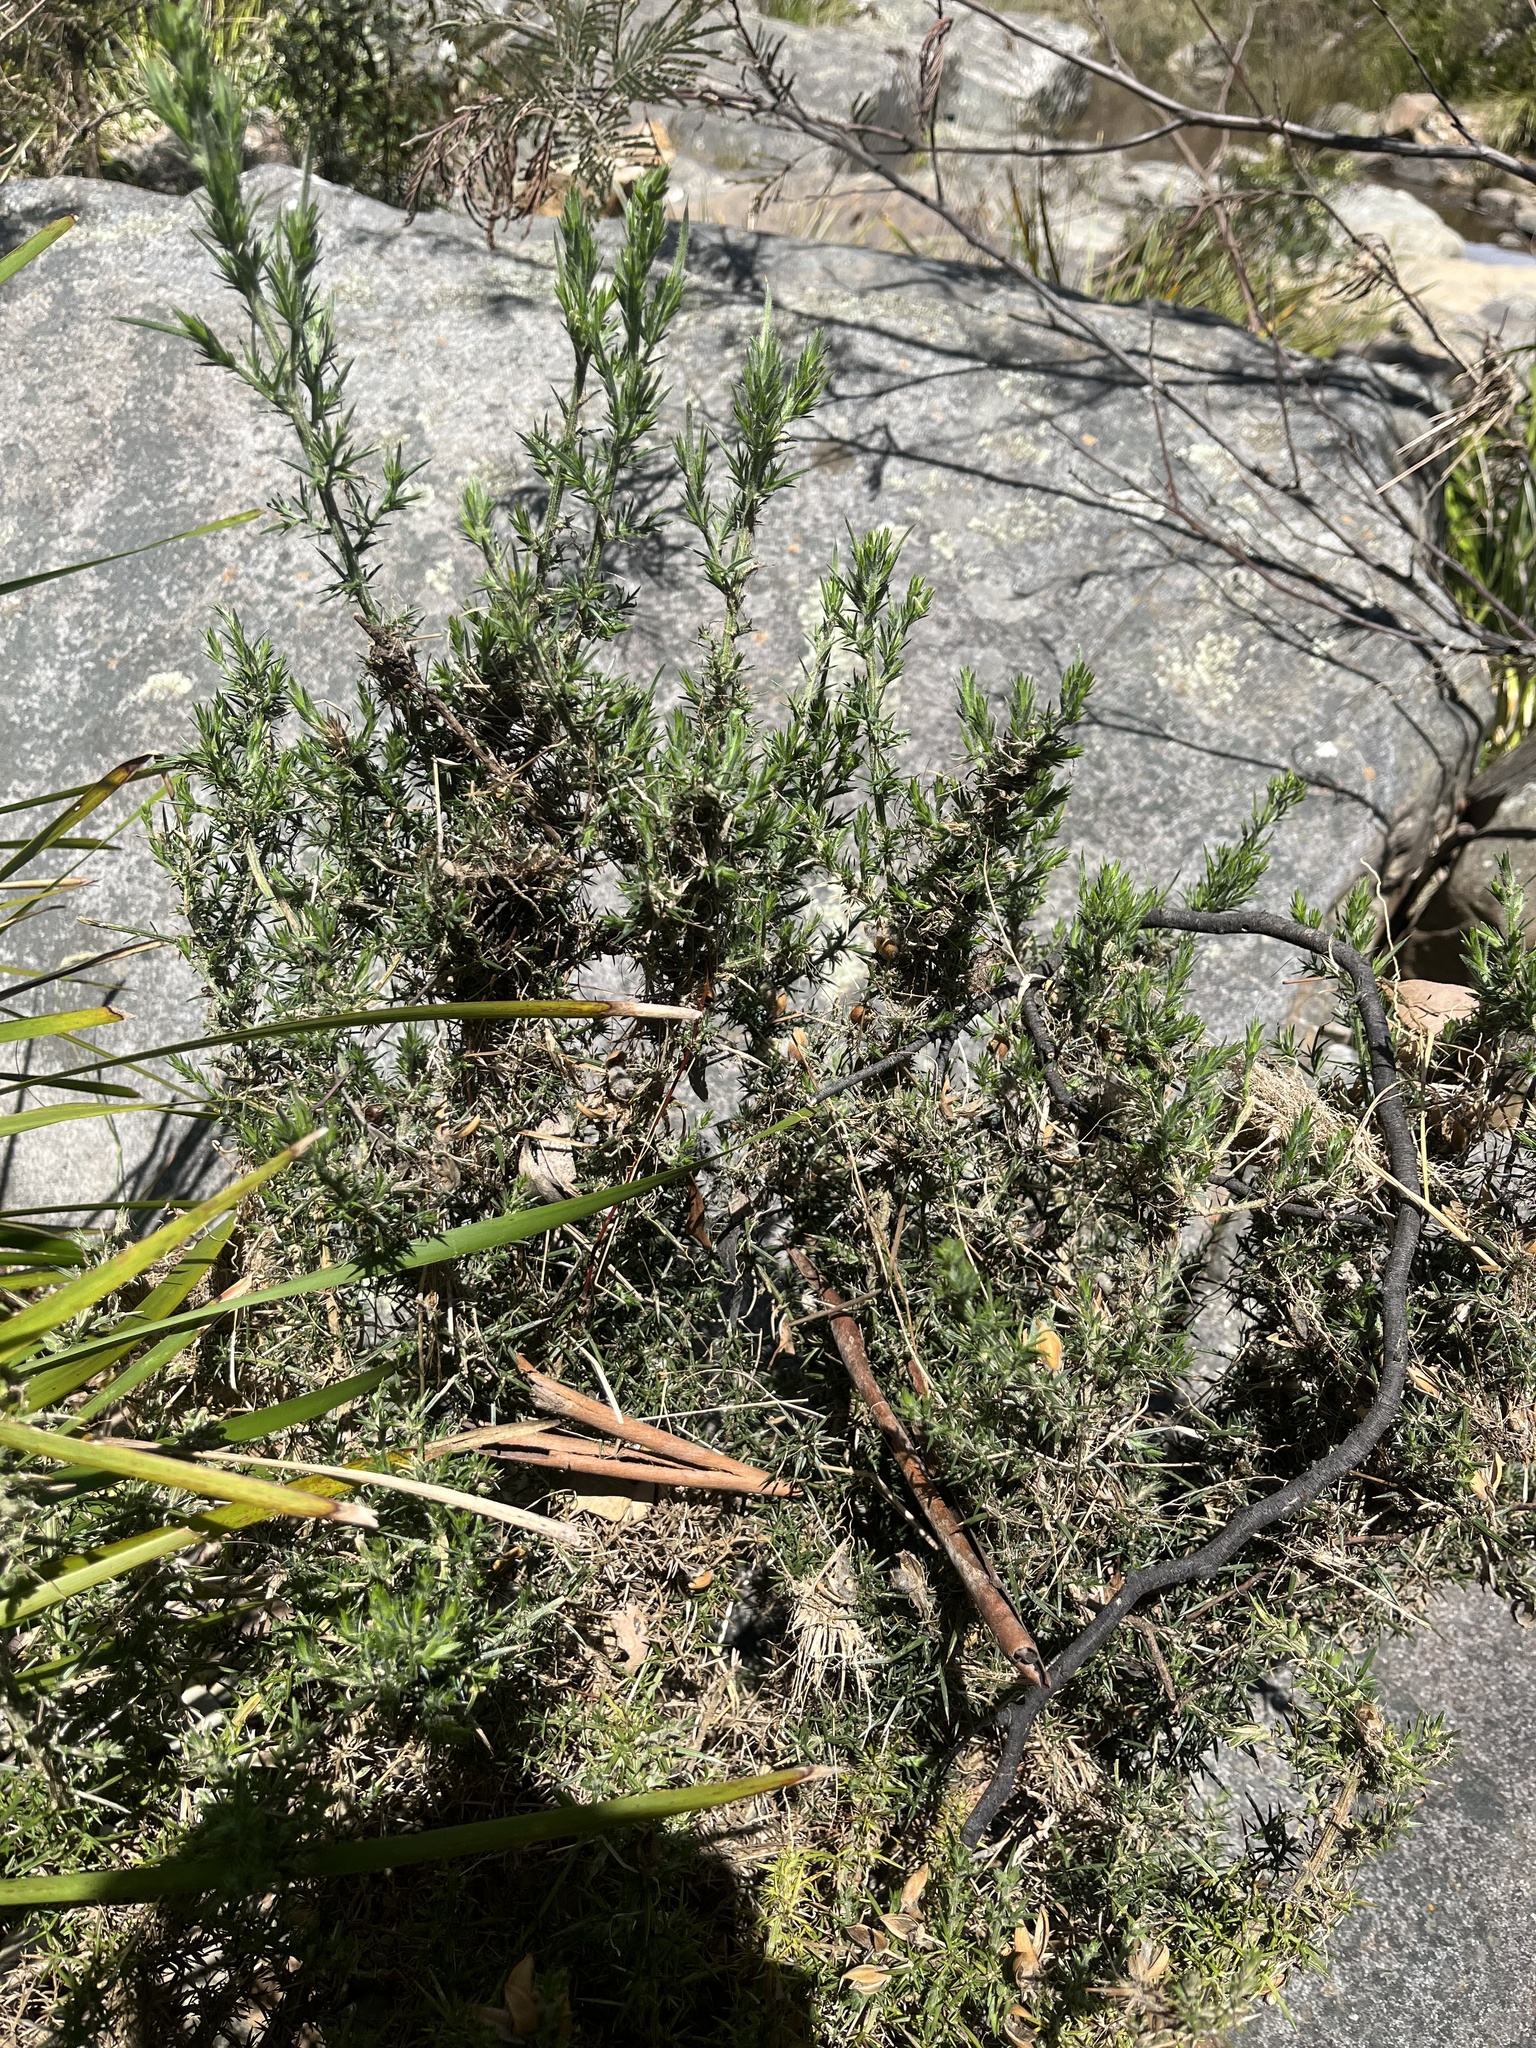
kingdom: Plantae
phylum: Tracheophyta
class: Magnoliopsida
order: Fabales
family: Fabaceae
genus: Ulex
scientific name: Ulex europaeus
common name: Common gorse
